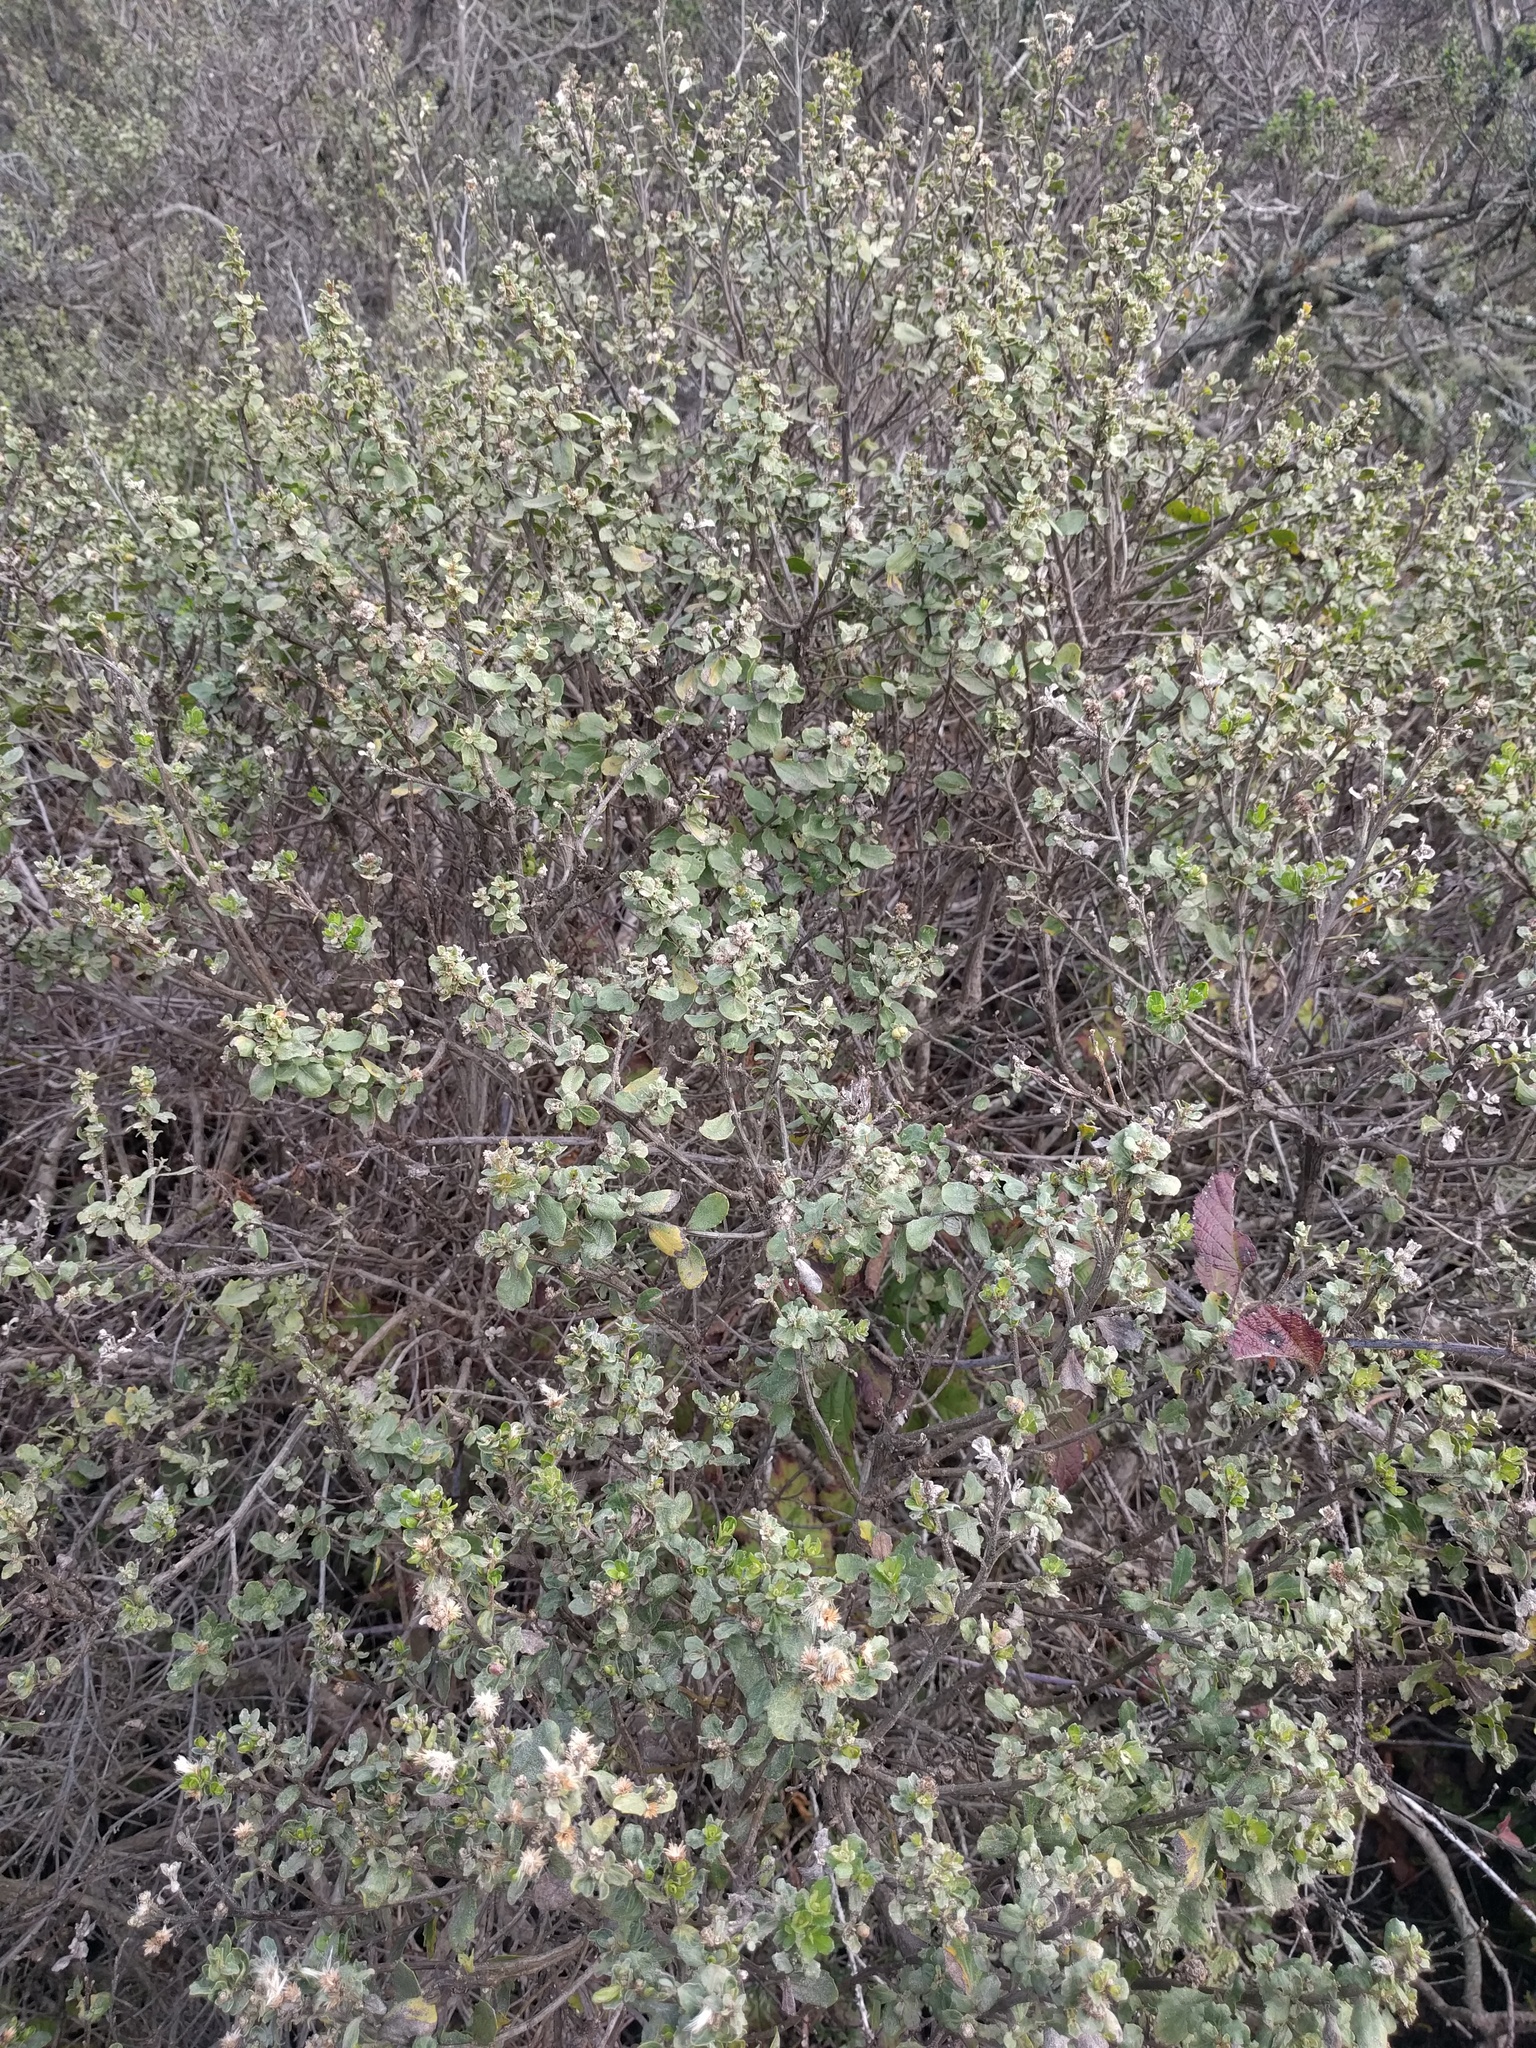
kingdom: Plantae
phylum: Tracheophyta
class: Magnoliopsida
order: Asterales
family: Asteraceae
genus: Baccharis
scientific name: Baccharis pilularis
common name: Coyotebrush
